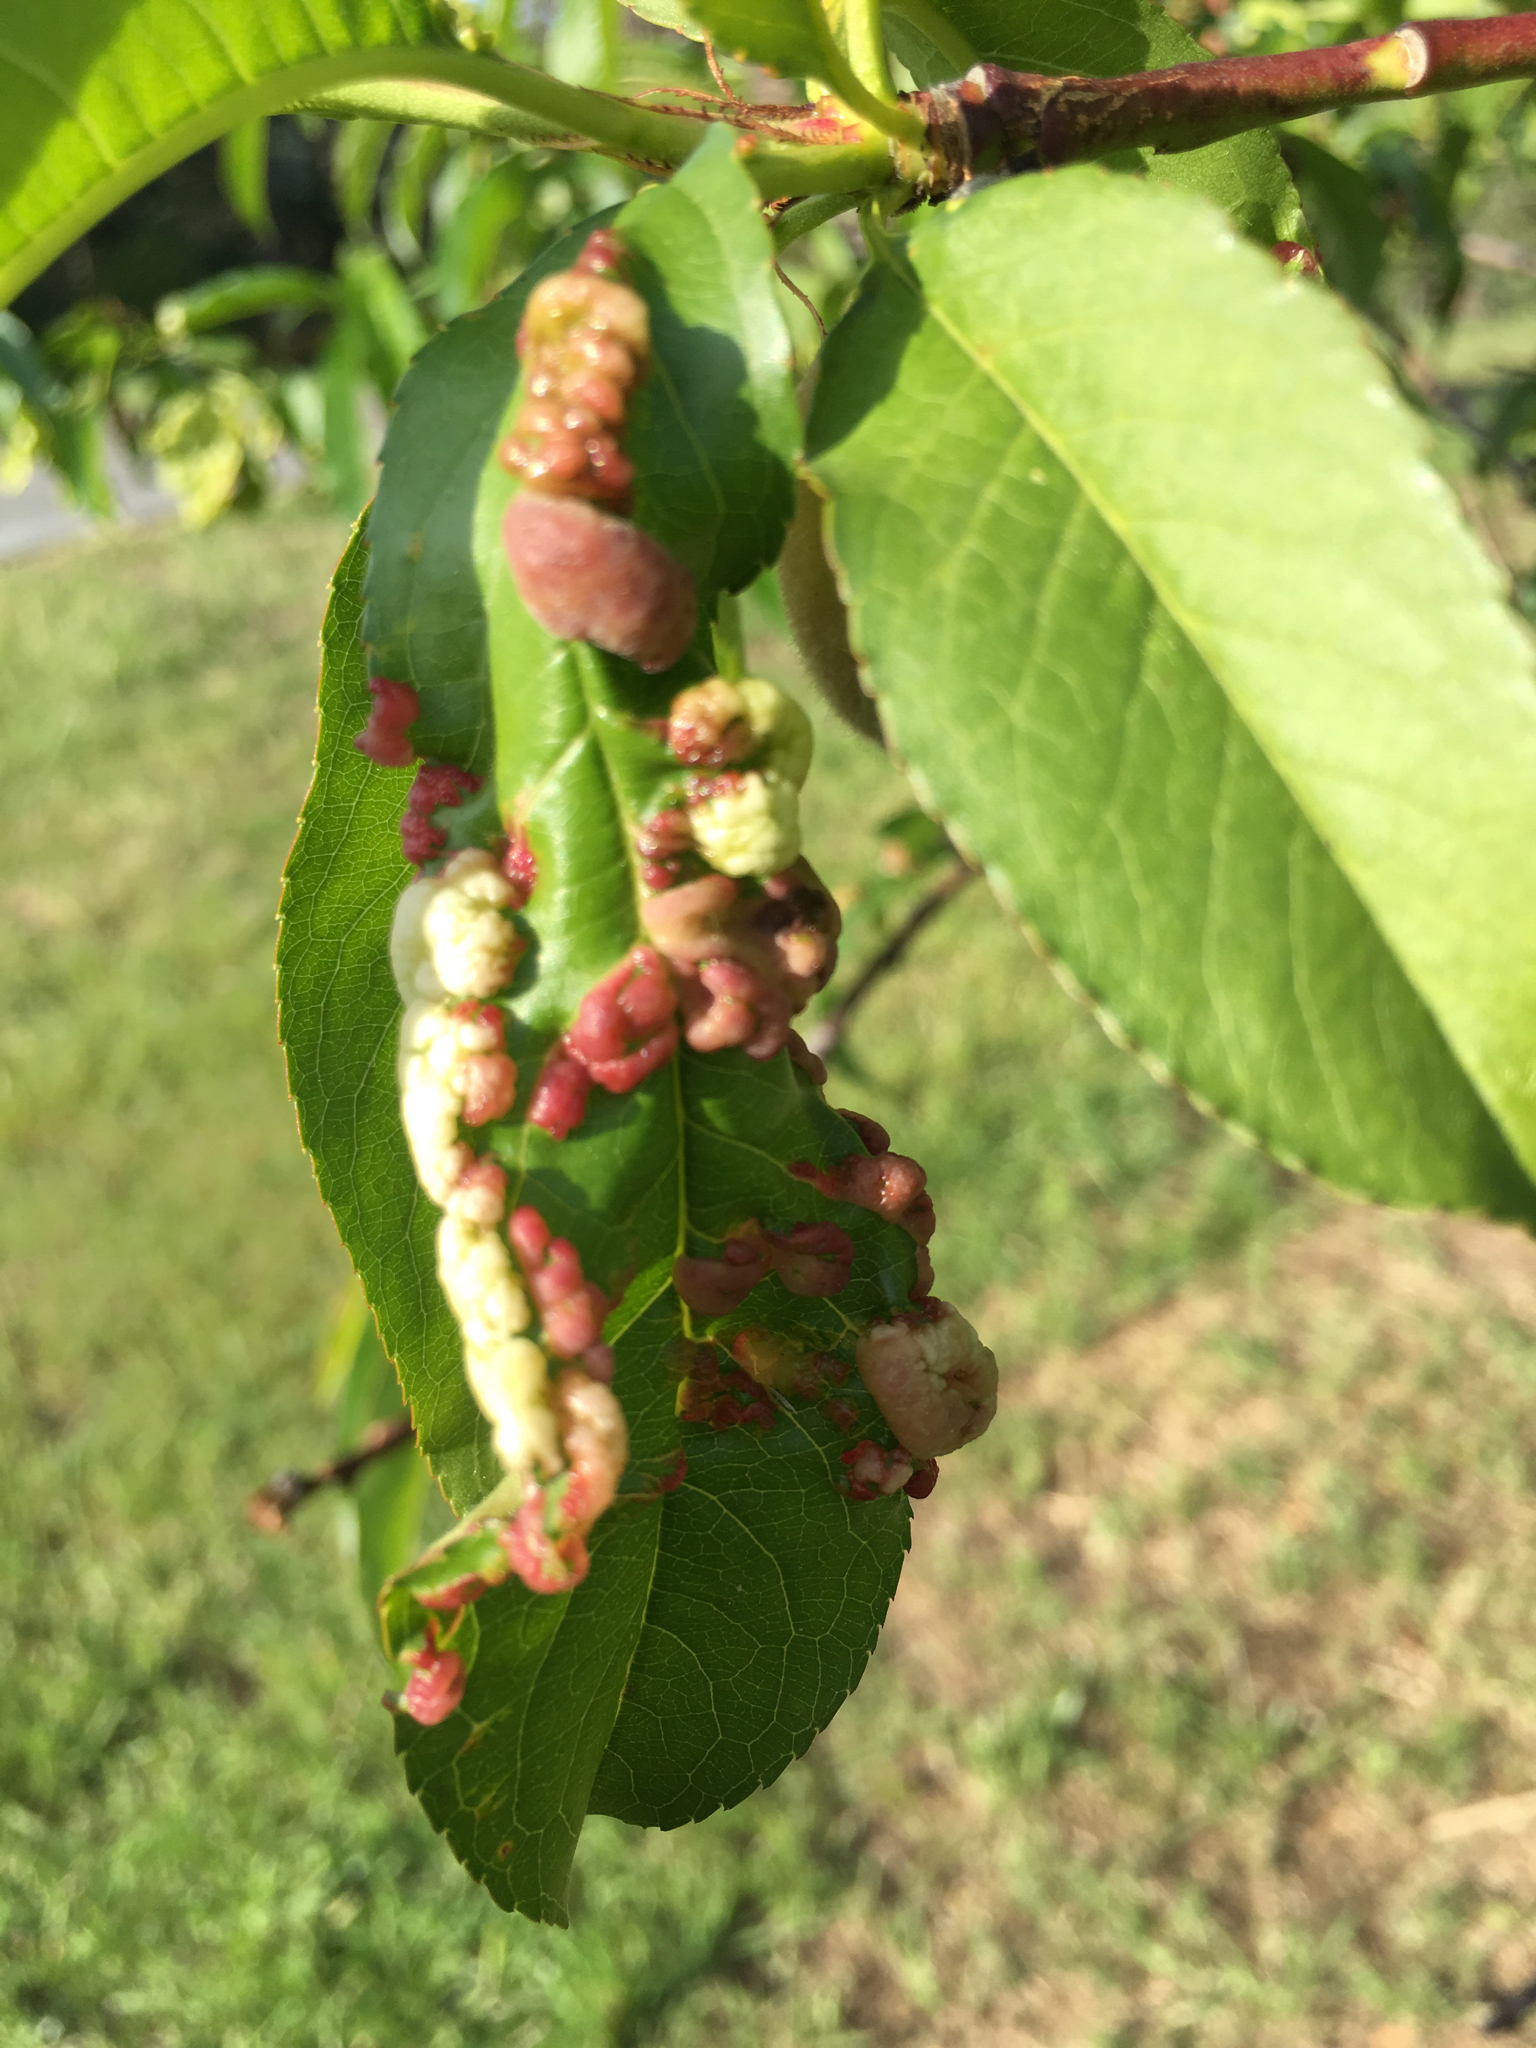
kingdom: Fungi
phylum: Ascomycota
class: Taphrinomycetes
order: Taphrinales
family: Taphrinaceae
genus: Taphrina
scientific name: Taphrina deformans
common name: Peach leaf curl
